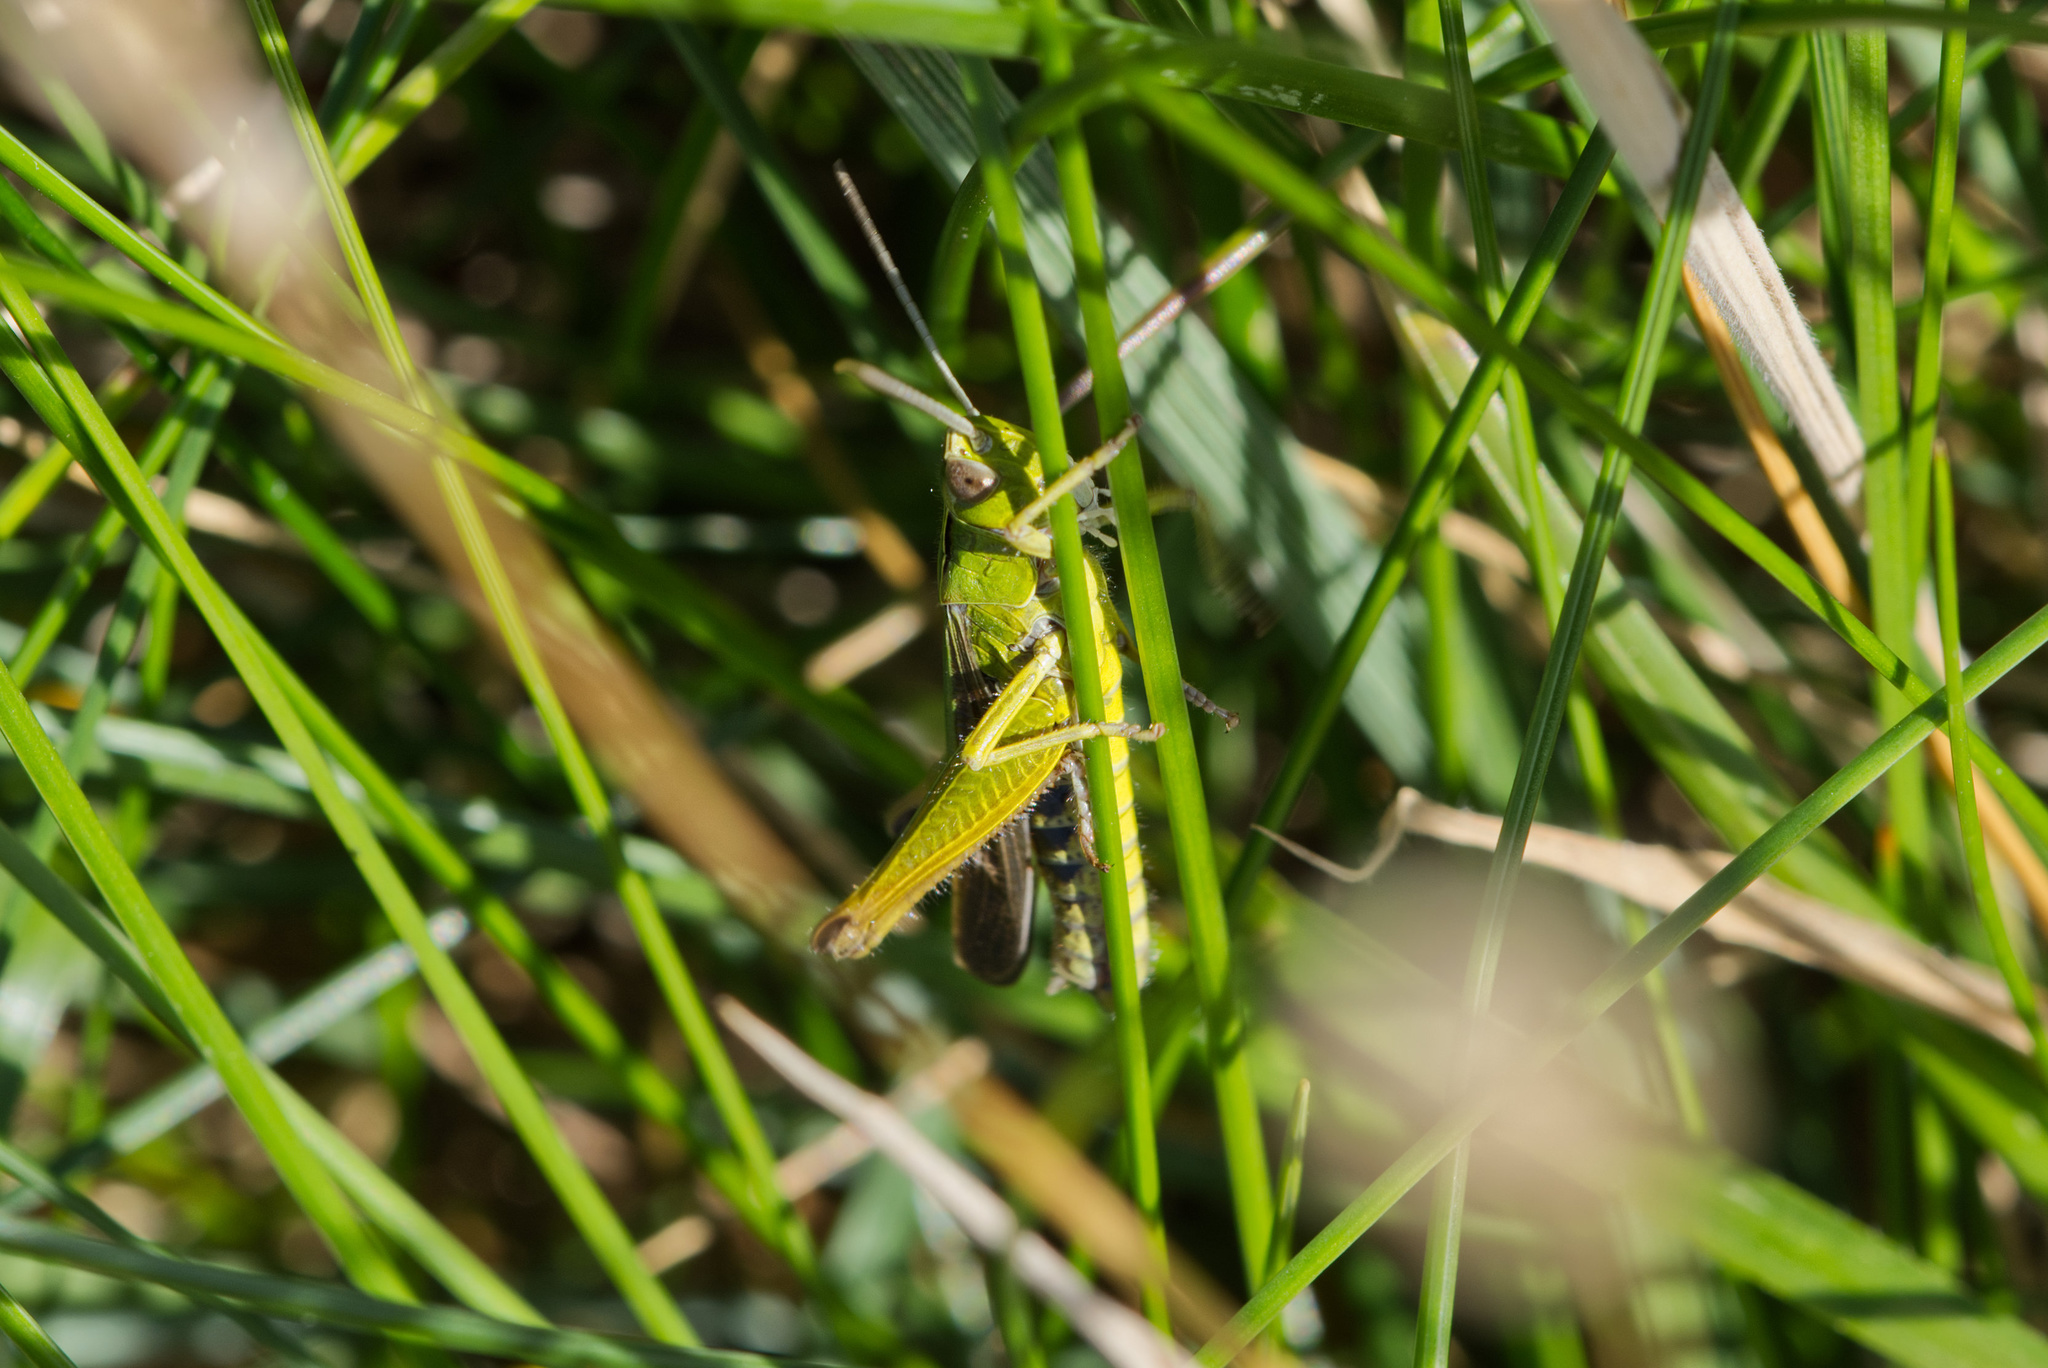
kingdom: Animalia
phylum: Arthropoda
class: Insecta
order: Orthoptera
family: Acrididae
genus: Omocestus
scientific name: Omocestus viridulus
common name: Common green grasshopper
